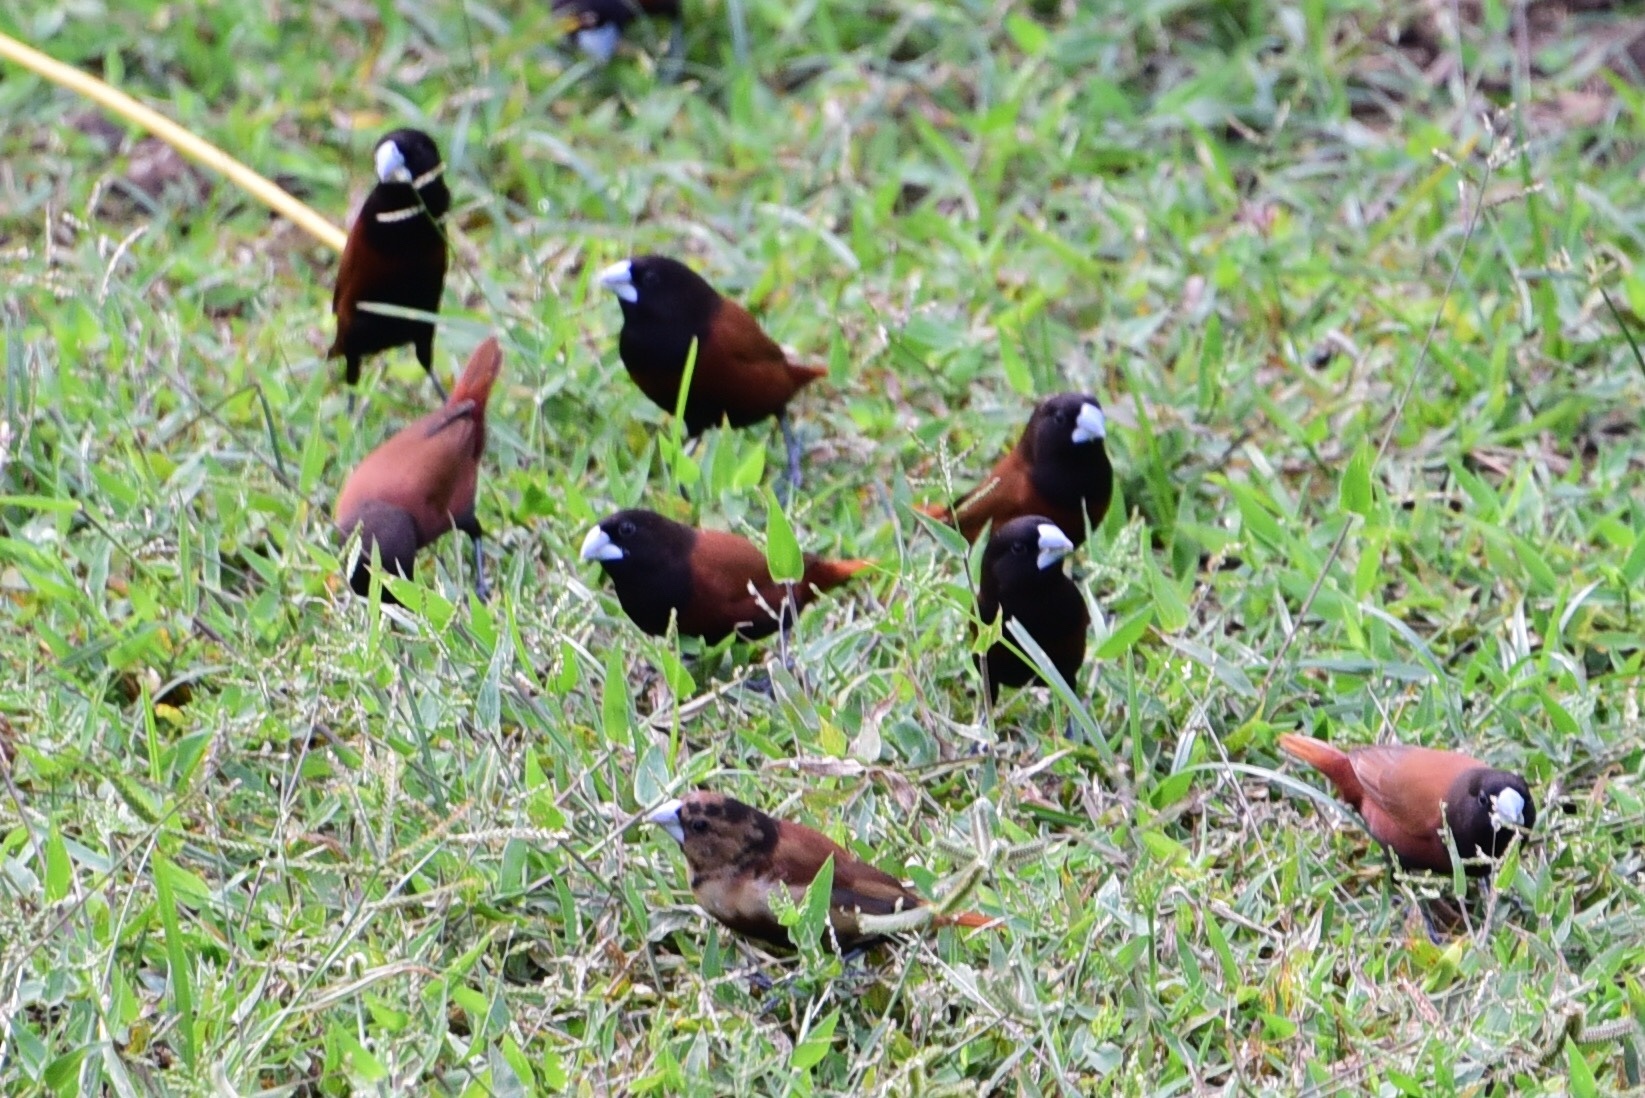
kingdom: Animalia
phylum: Chordata
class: Aves
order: Passeriformes
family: Estrildidae
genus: Lonchura
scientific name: Lonchura atricapilla
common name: Chestnut munia
